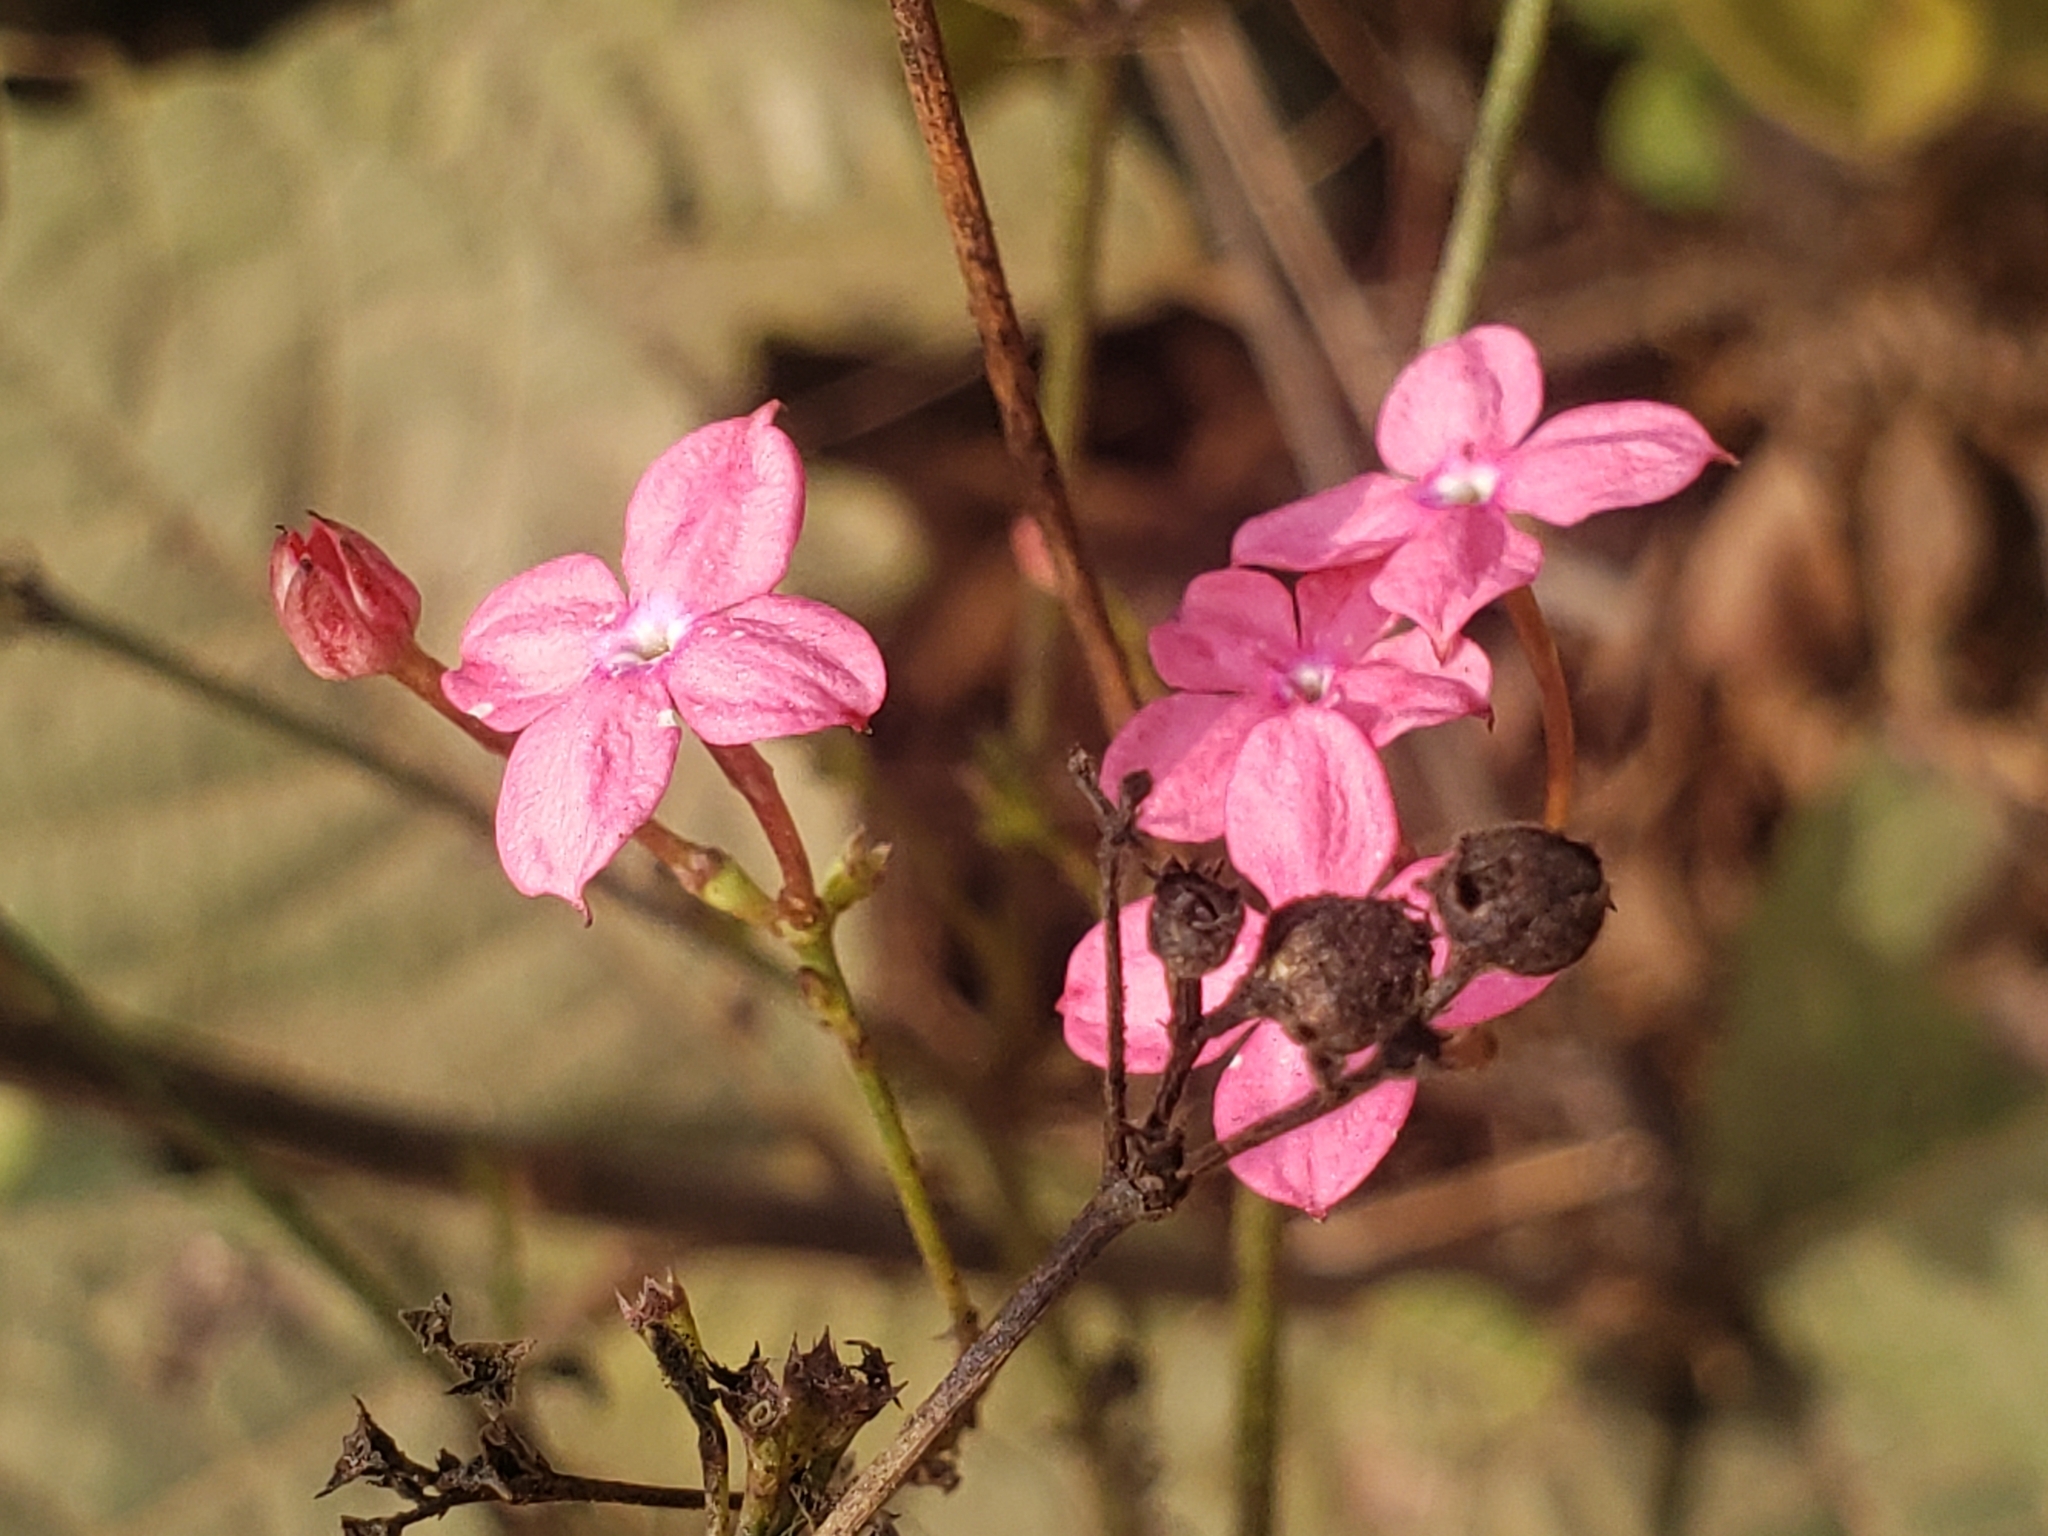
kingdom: Plantae
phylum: Tracheophyta
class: Magnoliopsida
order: Gentianales
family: Rubiaceae
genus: Kohautia
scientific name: Kohautia grandiflora
